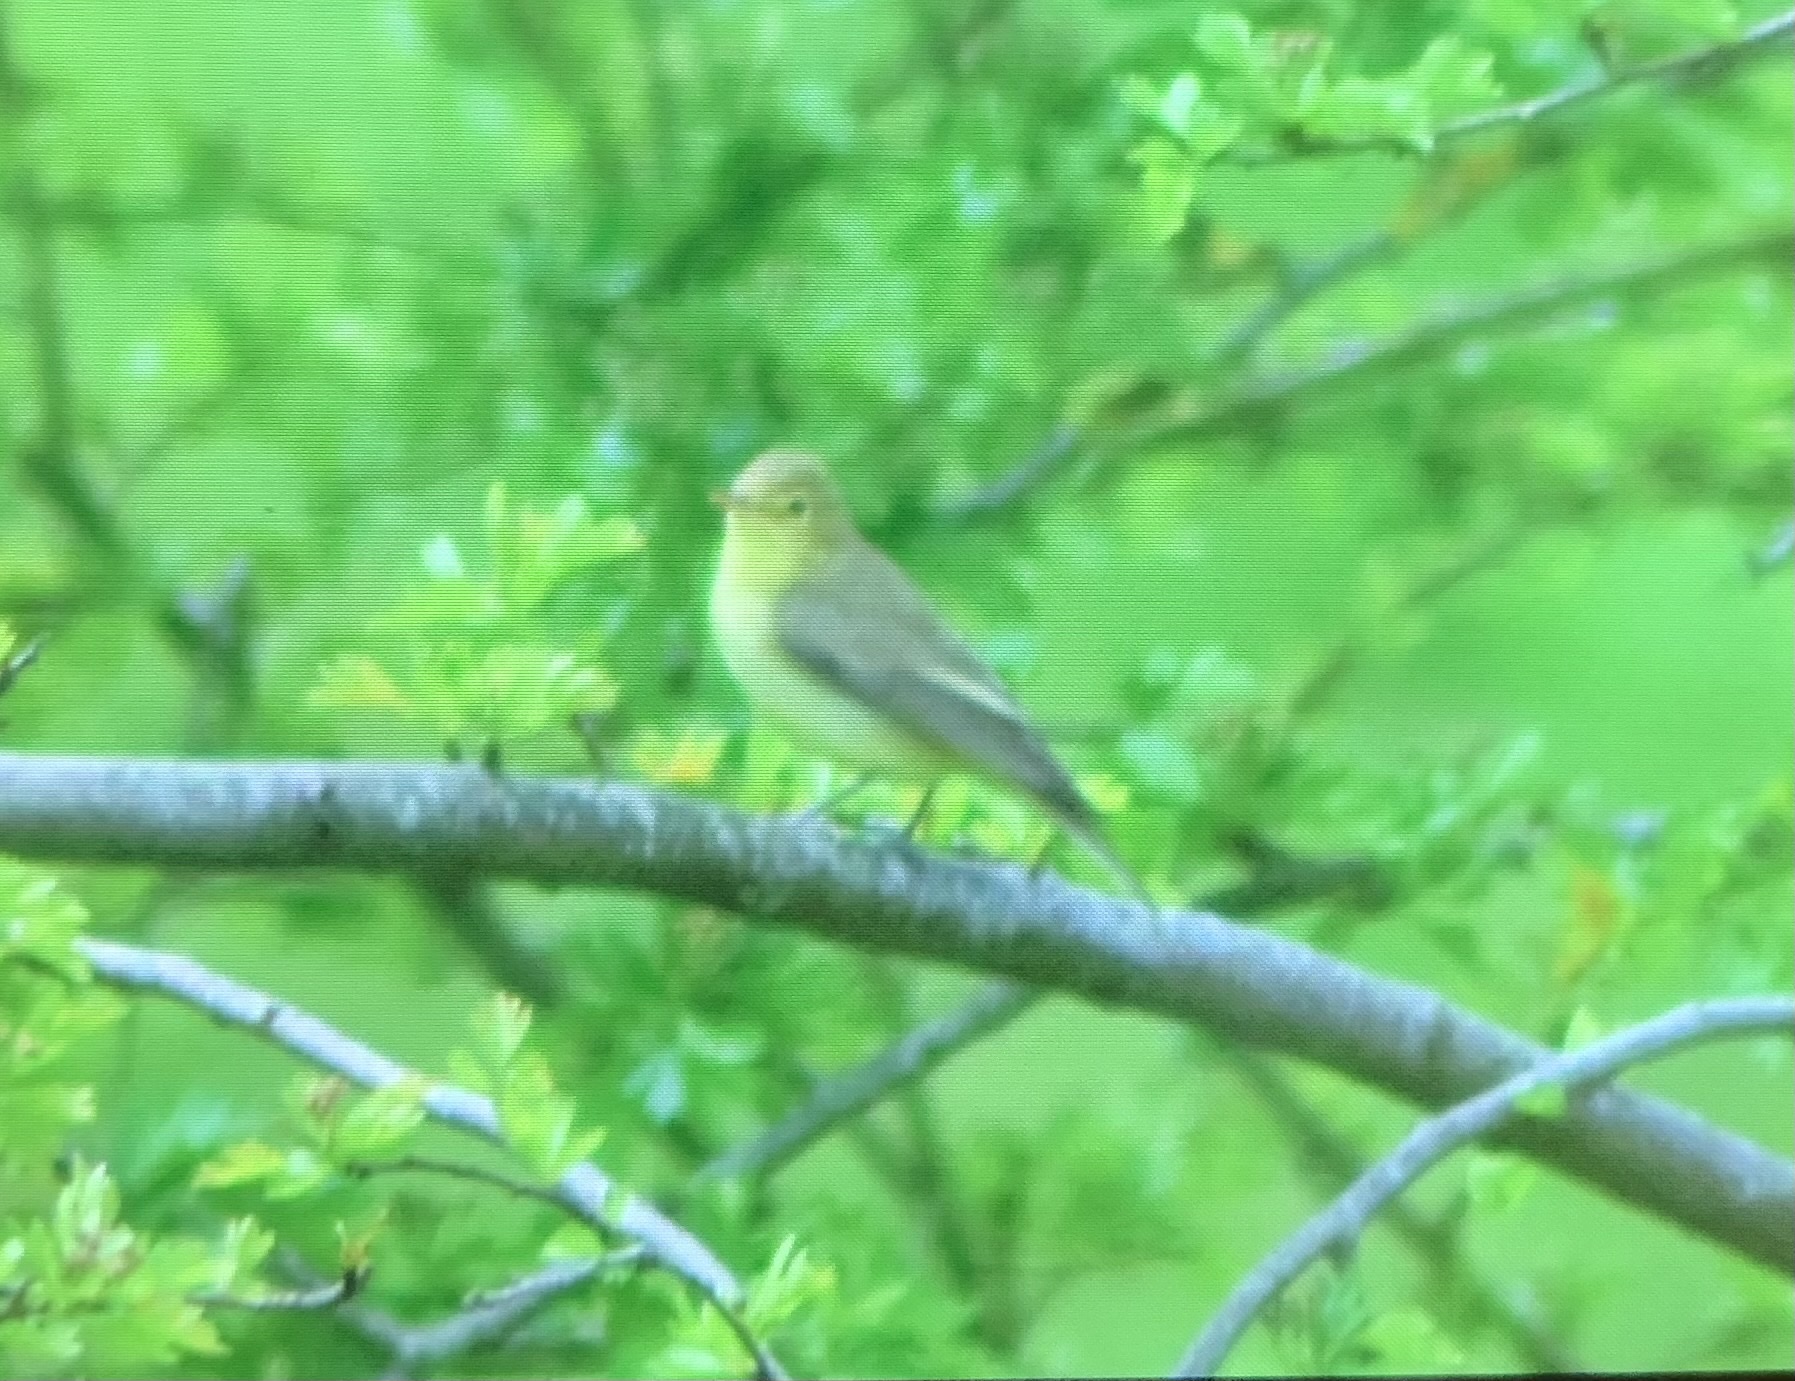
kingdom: Animalia
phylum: Chordata
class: Aves
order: Passeriformes
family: Phylloscopidae
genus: Phylloscopus
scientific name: Phylloscopus trochilus
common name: Willow warbler
